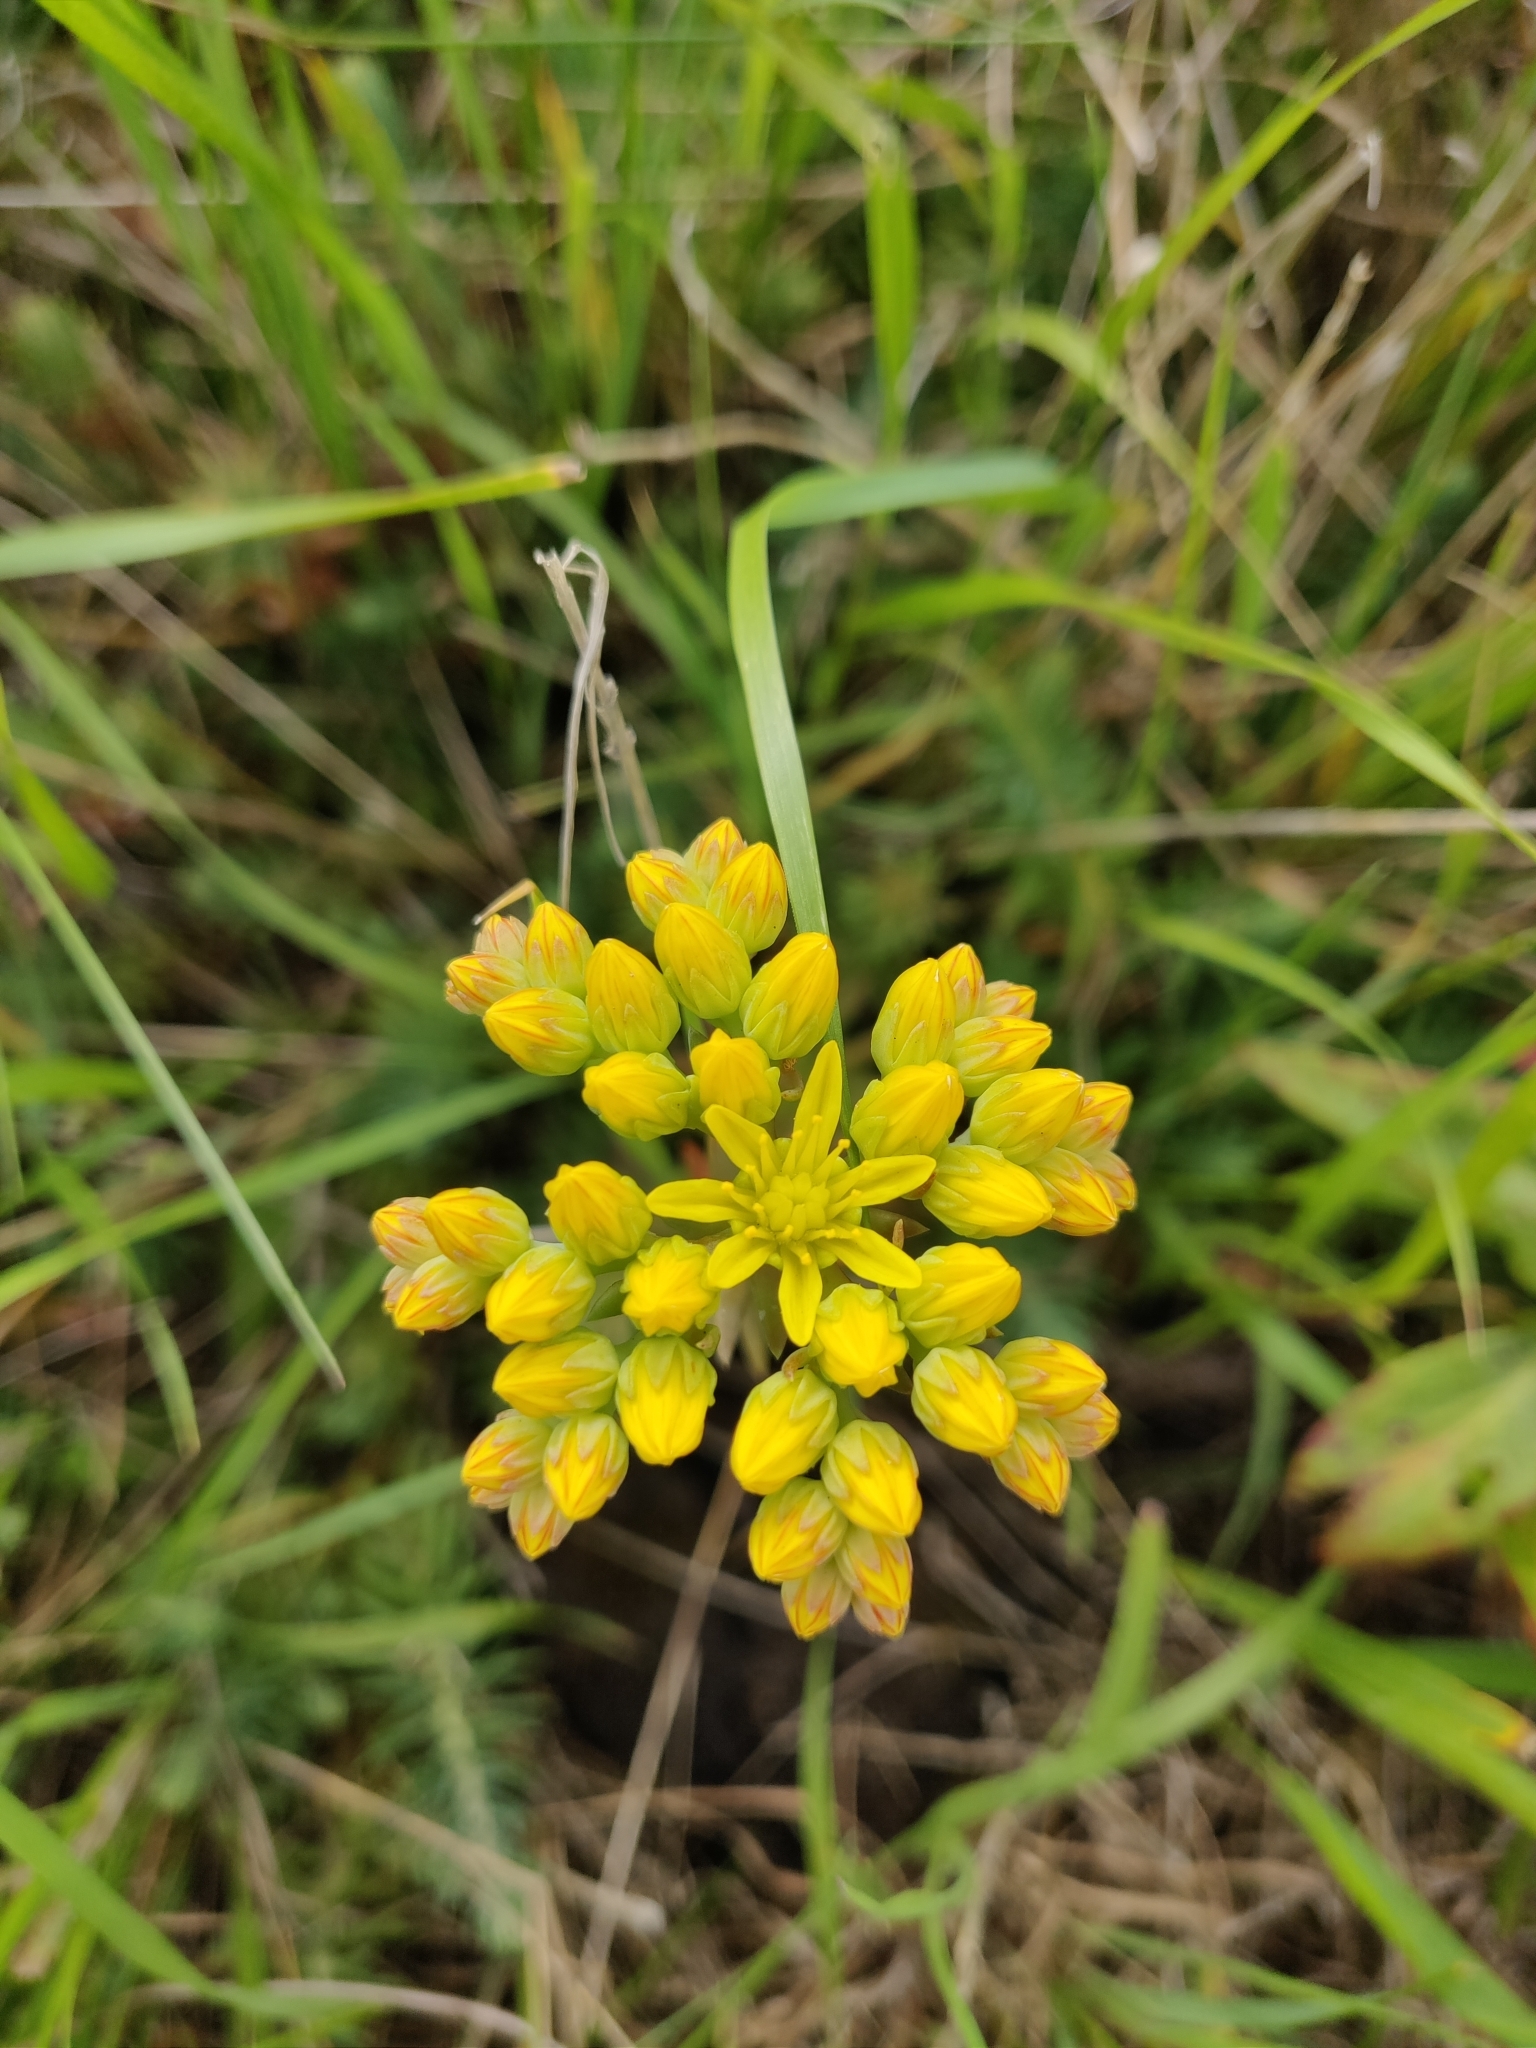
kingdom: Plantae
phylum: Tracheophyta
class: Magnoliopsida
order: Saxifragales
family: Crassulaceae
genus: Petrosedum
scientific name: Petrosedum rupestre
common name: Jenny's stonecrop
